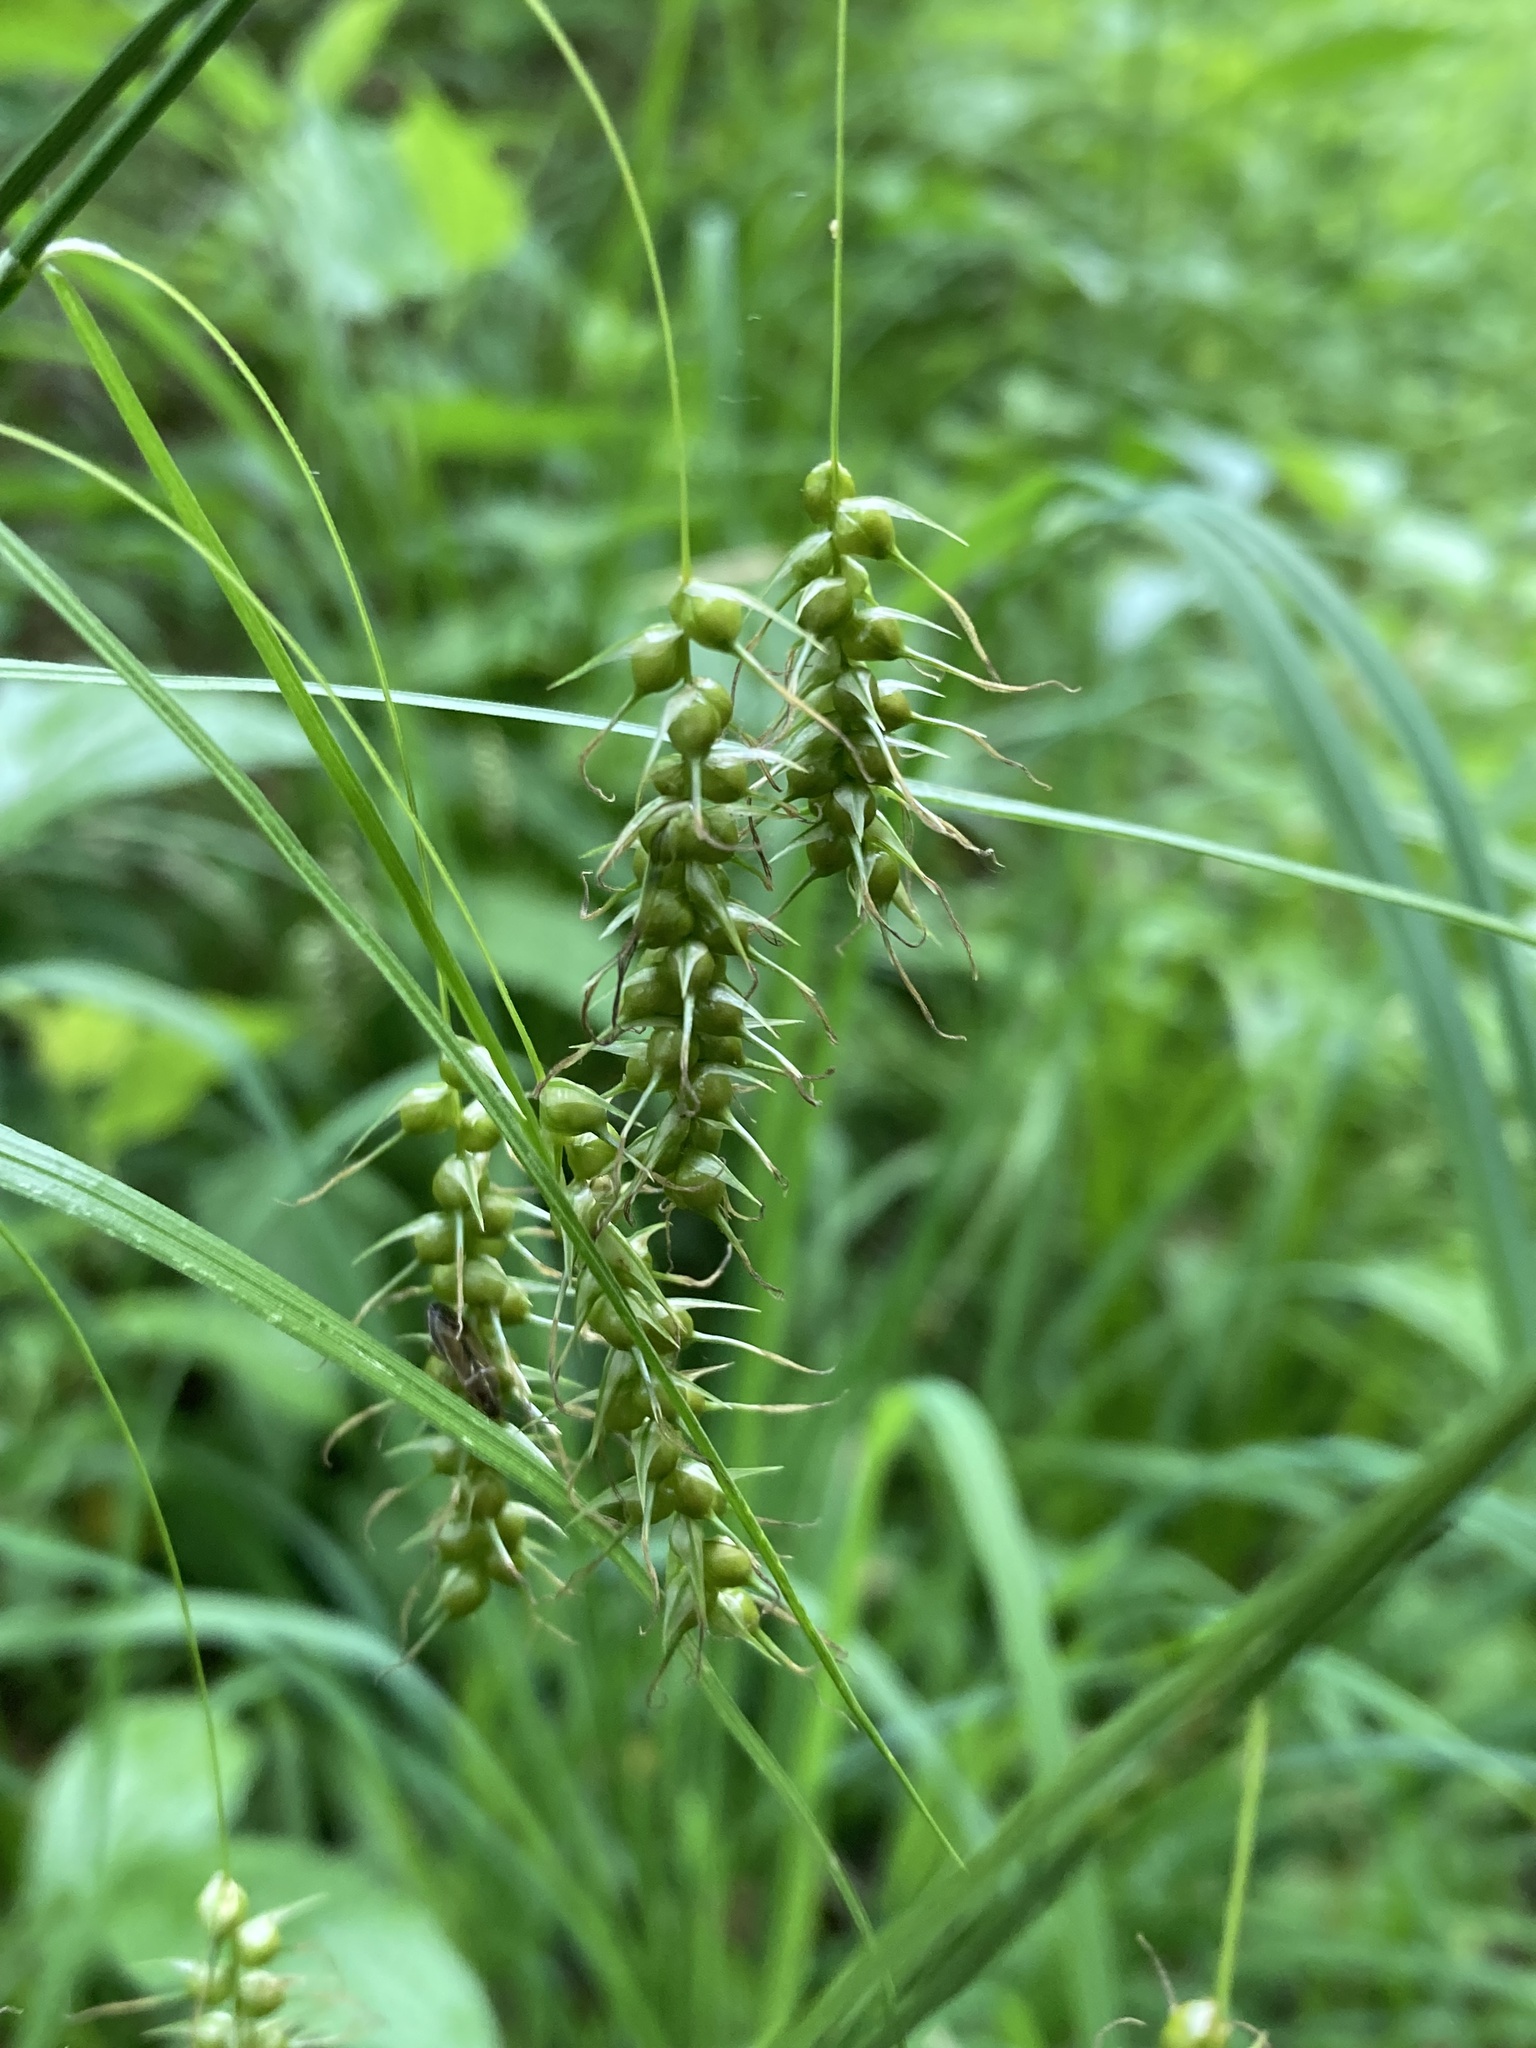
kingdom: Plantae
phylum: Tracheophyta
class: Liliopsida
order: Poales
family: Cyperaceae
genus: Carex
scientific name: Carex sprengelii
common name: Long-beaked sedge
